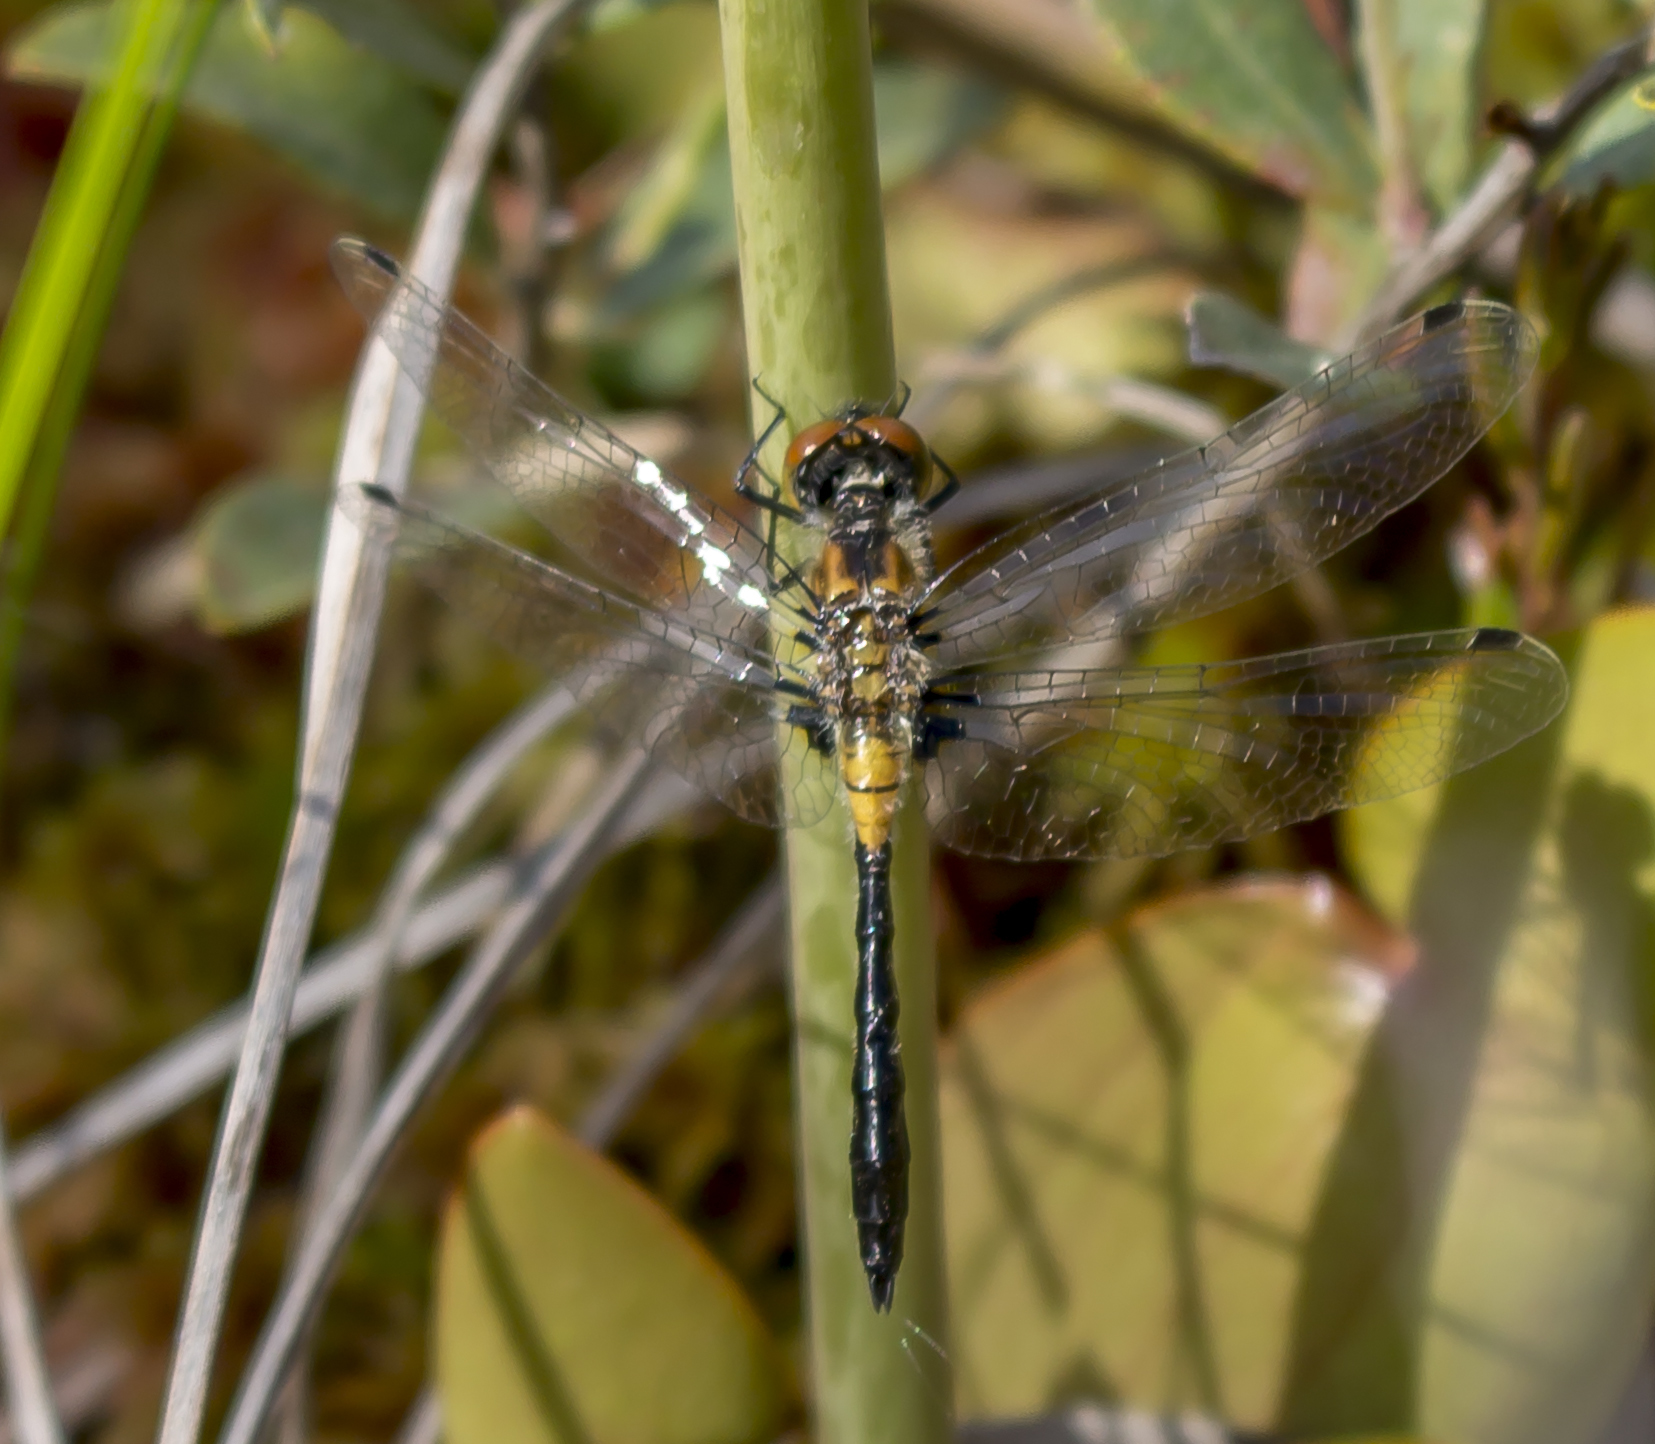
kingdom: Animalia
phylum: Arthropoda
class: Insecta
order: Odonata
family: Libellulidae
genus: Leucorrhinia
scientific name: Leucorrhinia frigida
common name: Frosted whiteface
